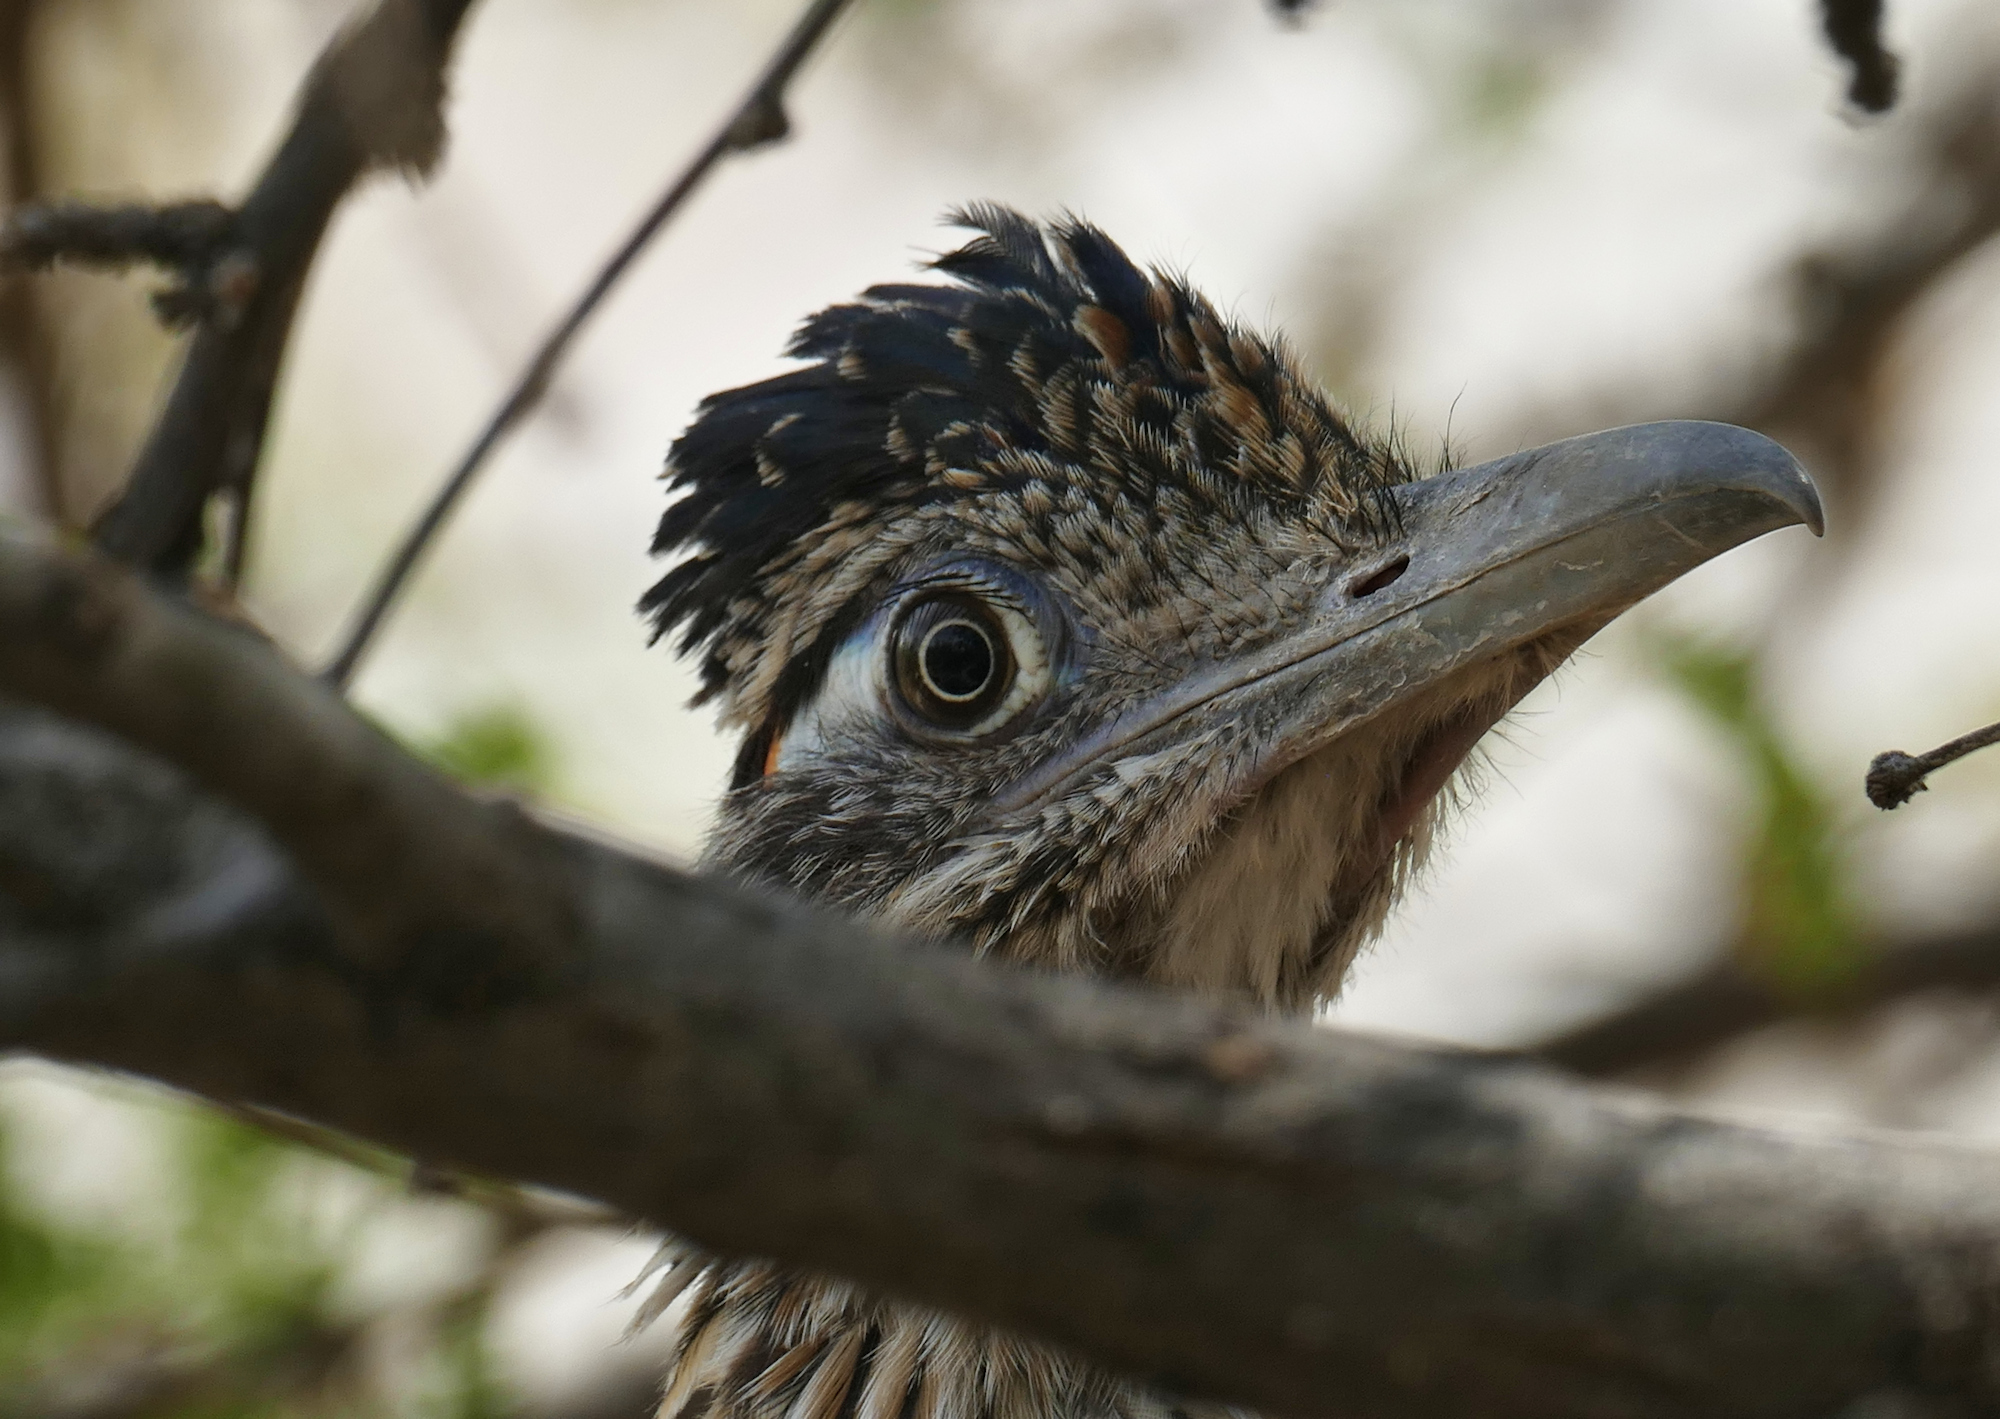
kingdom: Animalia
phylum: Chordata
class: Aves
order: Cuculiformes
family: Cuculidae
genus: Geococcyx
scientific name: Geococcyx californianus
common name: Greater roadrunner
